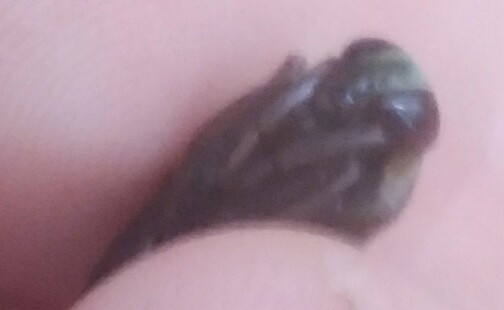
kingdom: Animalia
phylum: Arthropoda
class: Insecta
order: Hemiptera
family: Notonectidae
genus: Notonecta
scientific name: Notonecta
